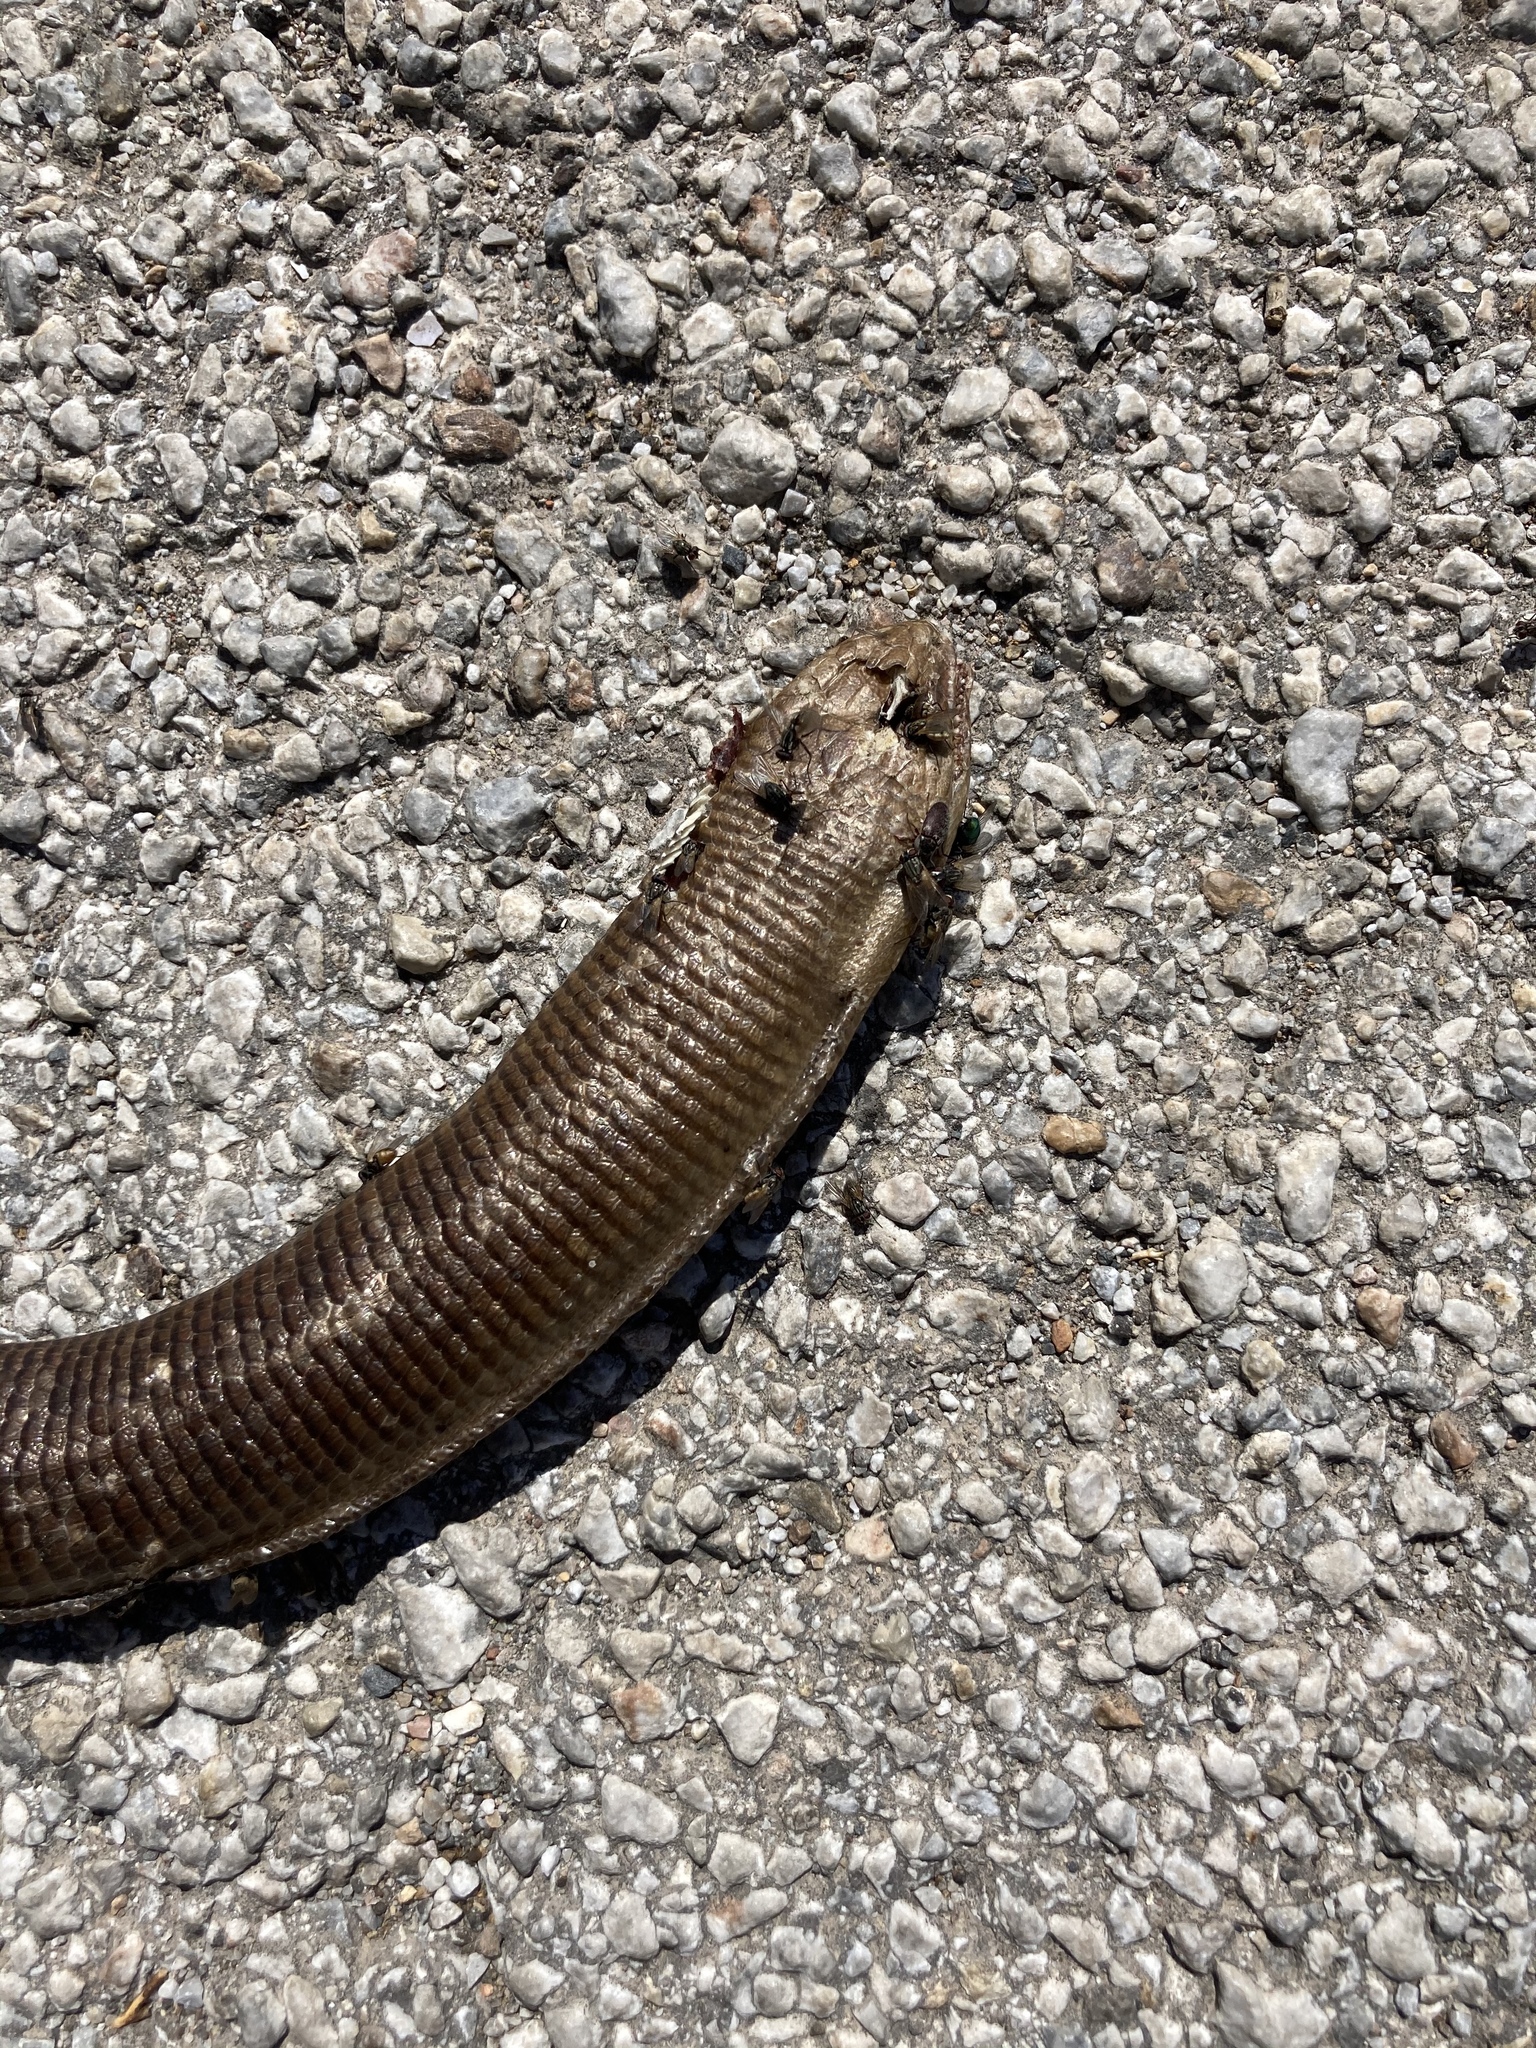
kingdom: Animalia
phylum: Chordata
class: Squamata
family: Anguidae
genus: Pseudopus
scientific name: Pseudopus apodus
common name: European glass lizard
